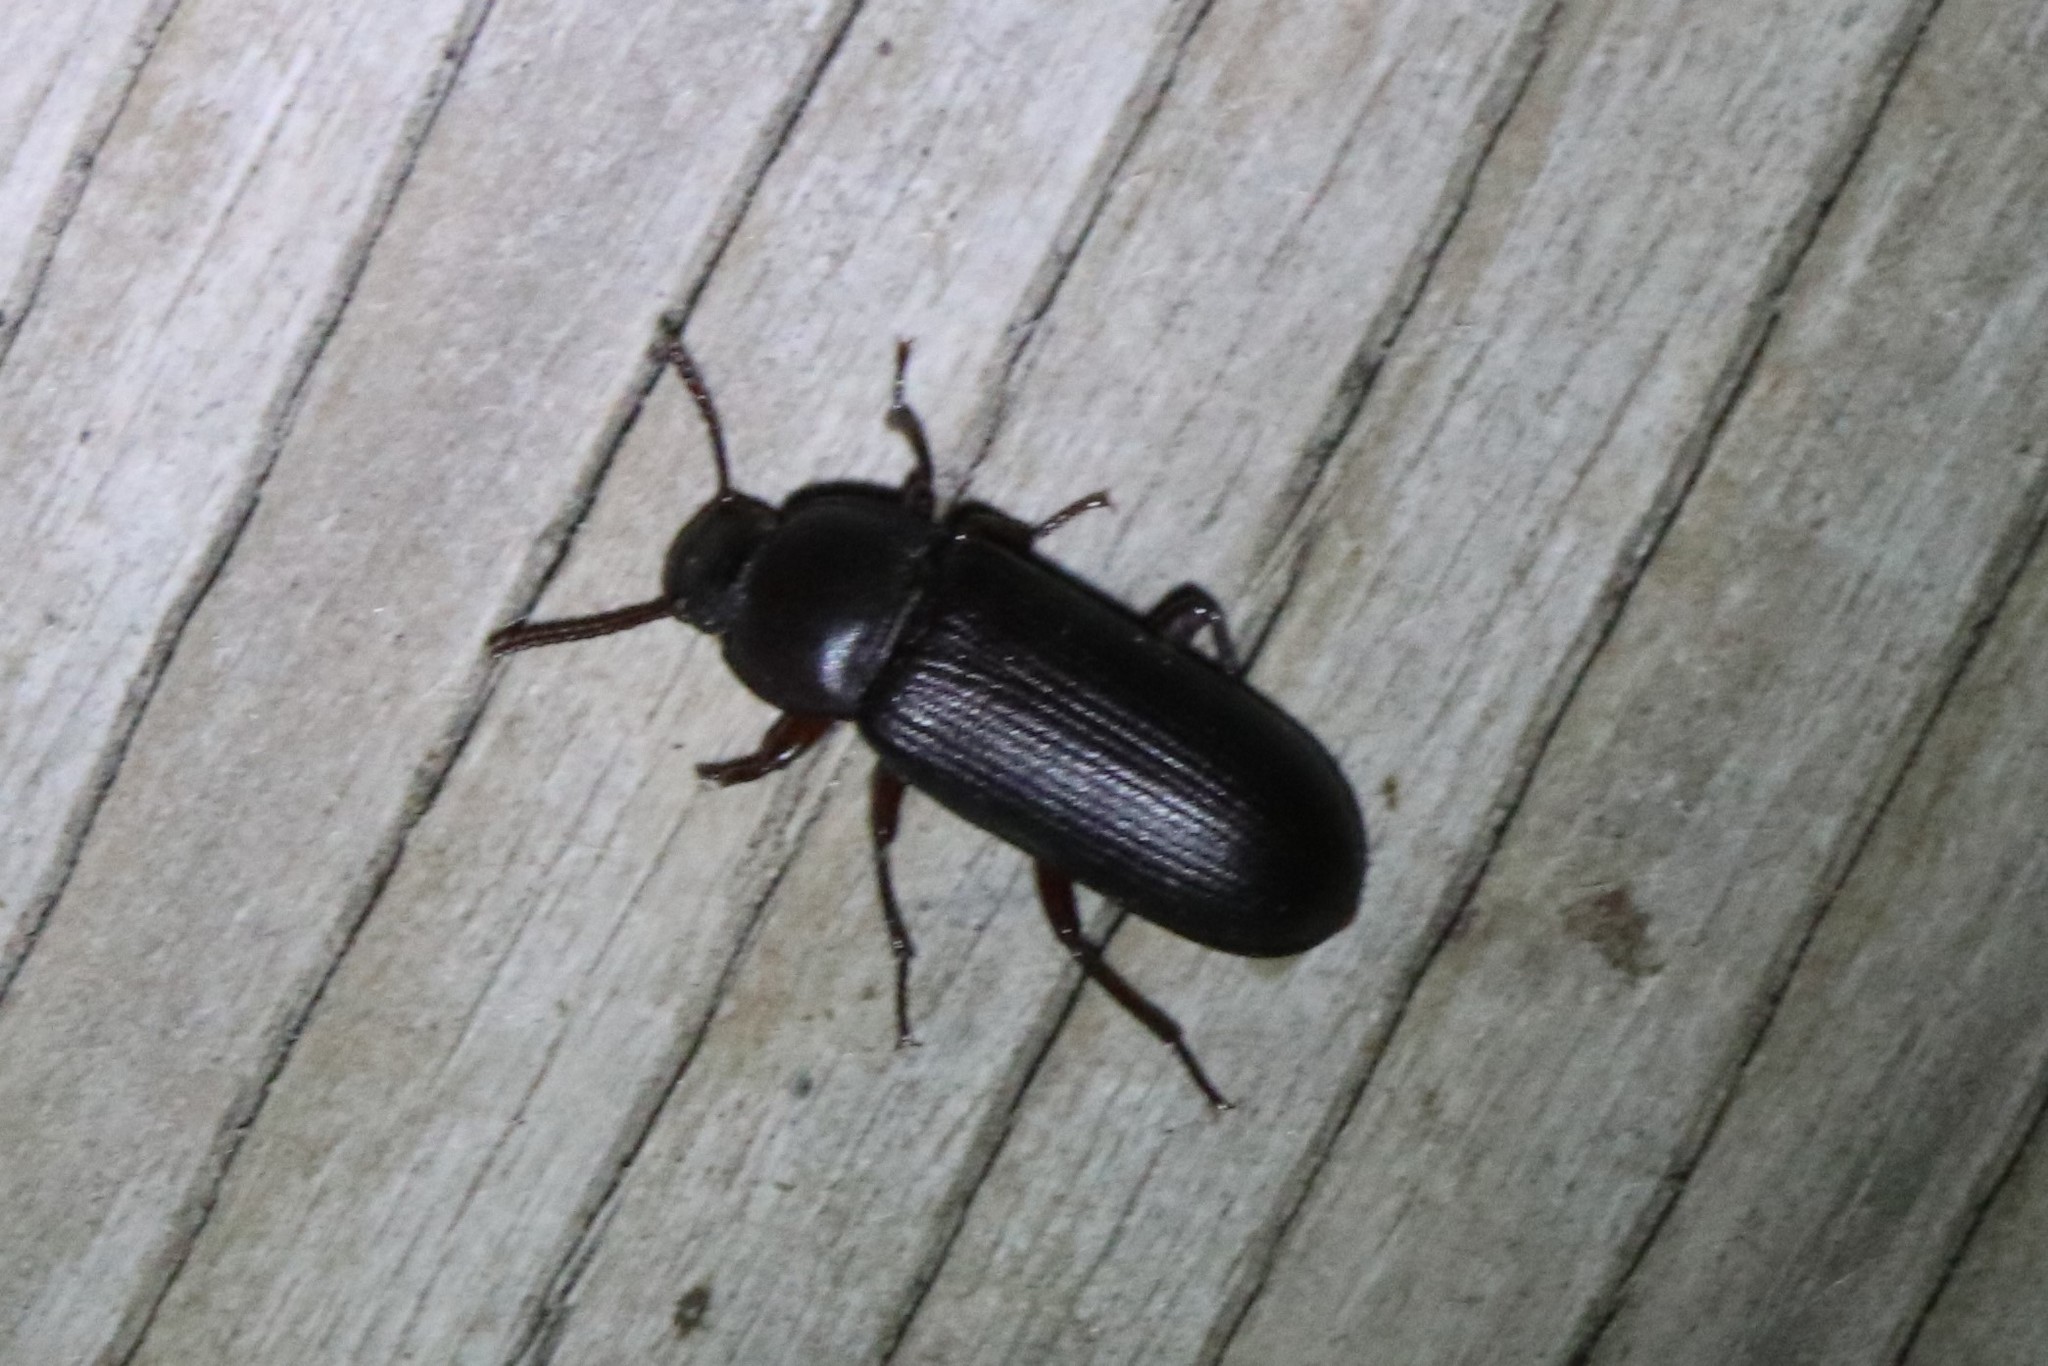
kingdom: Animalia
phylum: Arthropoda
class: Insecta
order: Coleoptera
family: Tenebrionidae
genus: Tenebrio
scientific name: Tenebrio molitor
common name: Hardback beetle
